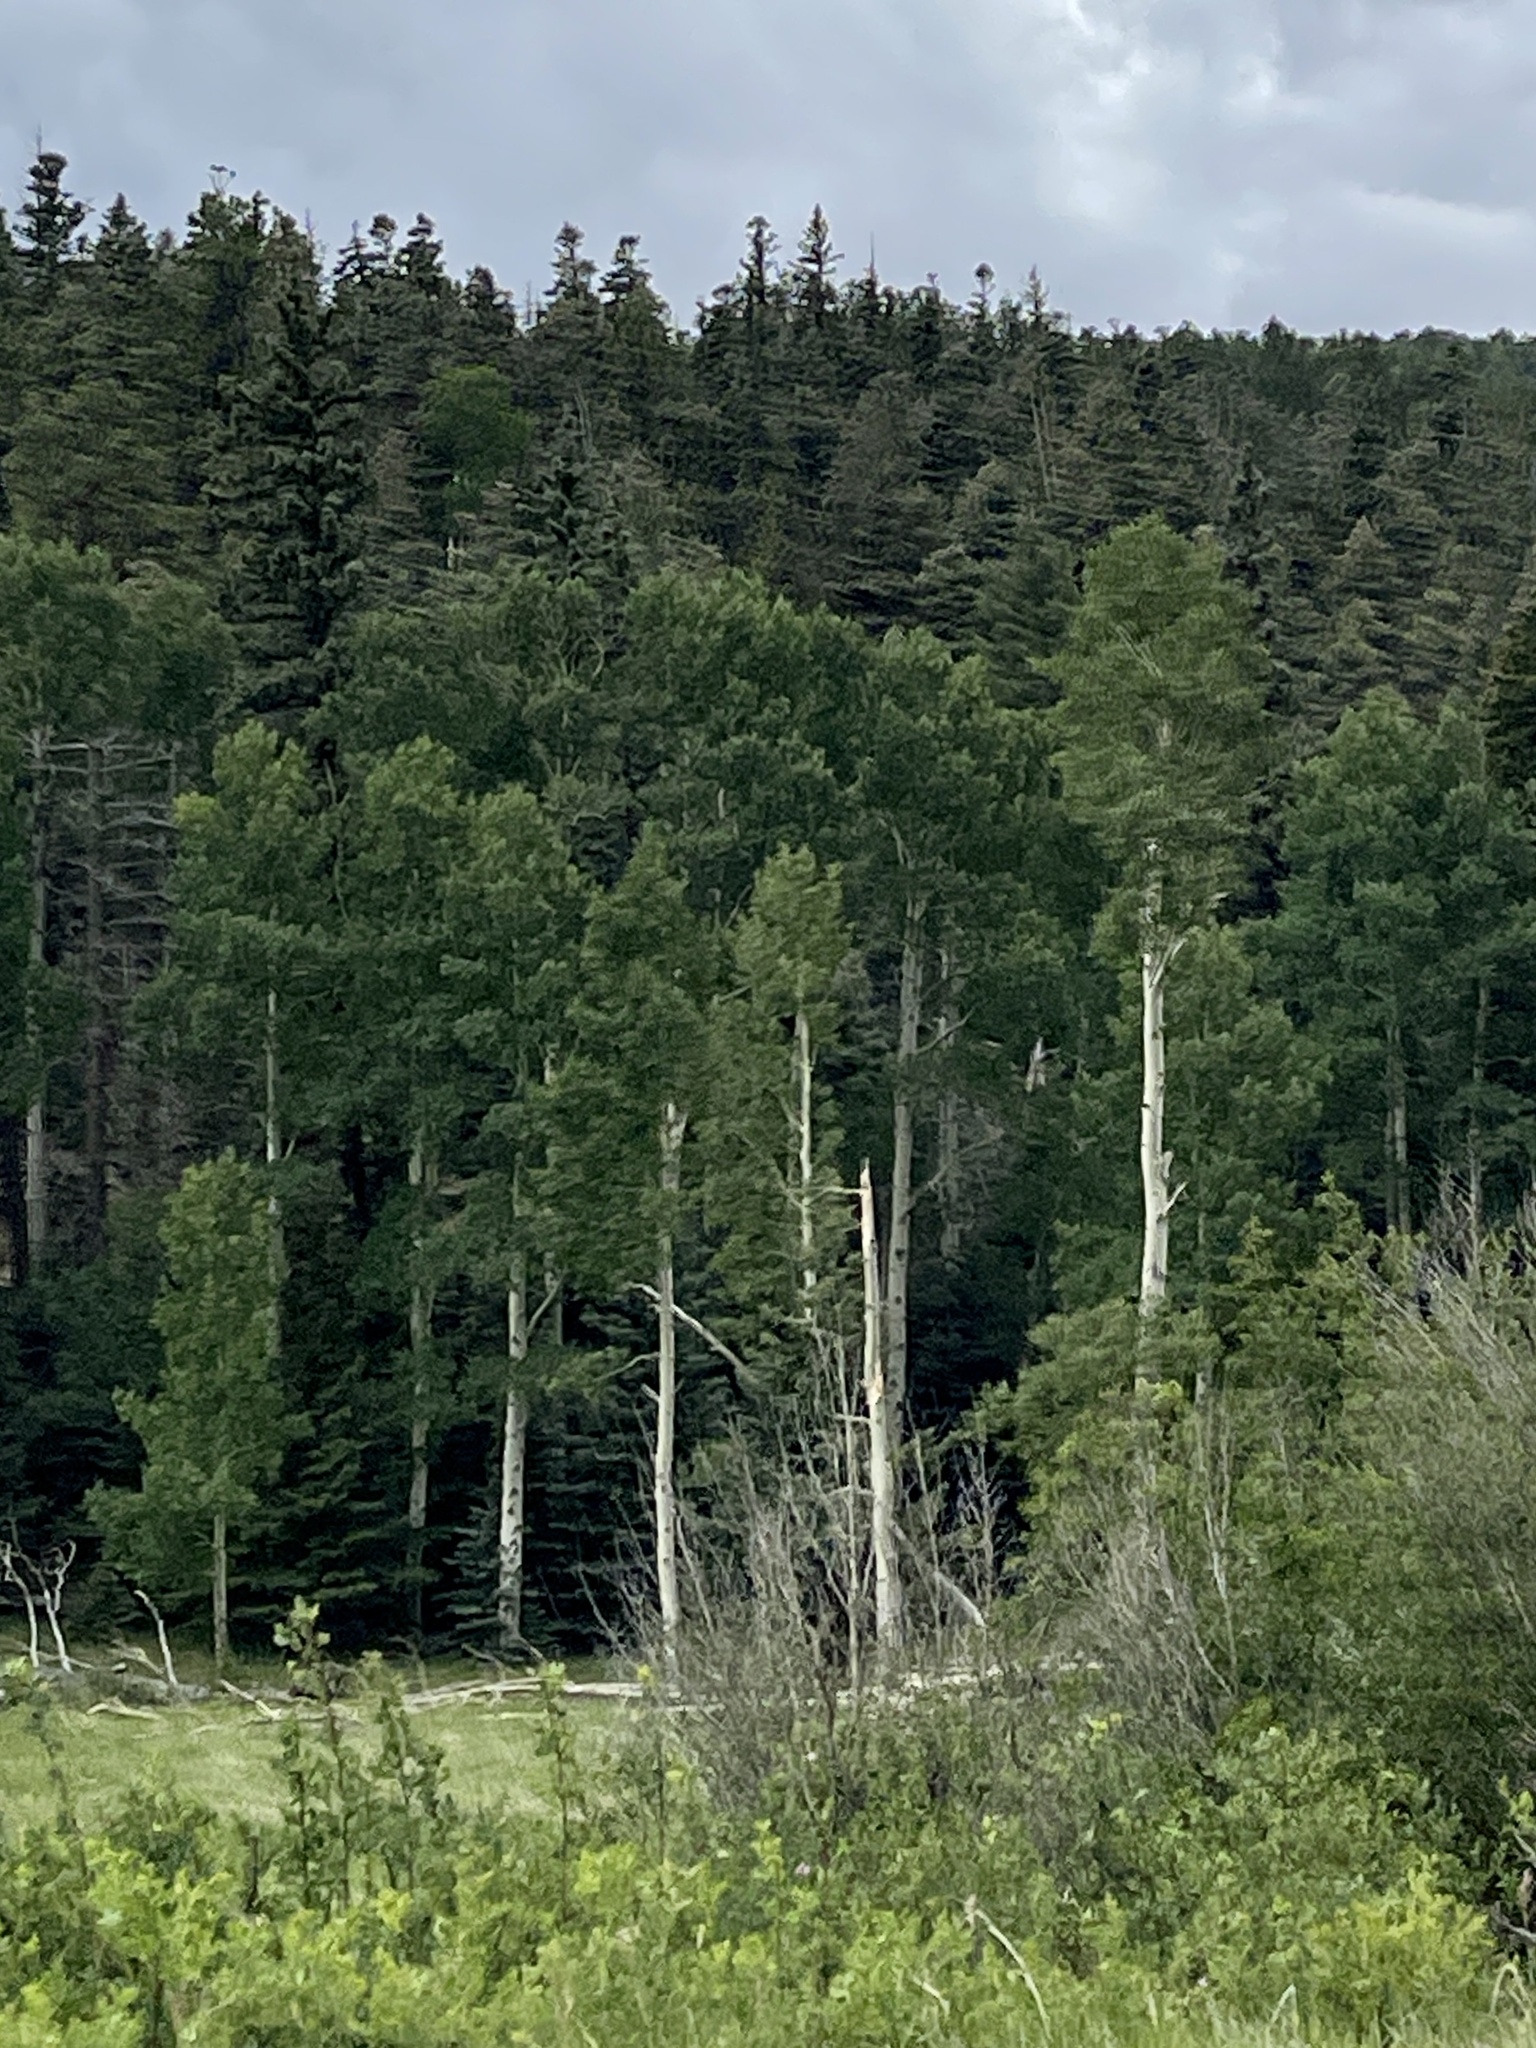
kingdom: Plantae
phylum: Tracheophyta
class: Magnoliopsida
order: Malpighiales
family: Salicaceae
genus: Populus
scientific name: Populus tremuloides
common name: Quaking aspen
